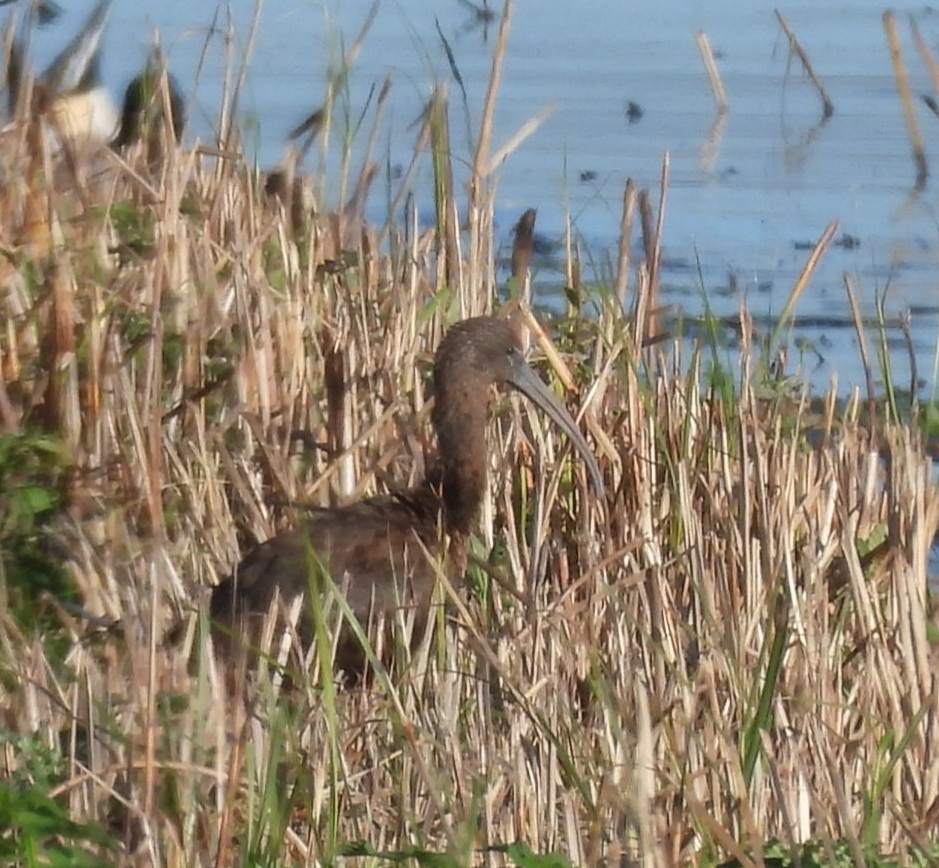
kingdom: Animalia
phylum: Chordata
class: Aves
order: Pelecaniformes
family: Threskiornithidae
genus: Plegadis
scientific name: Plegadis falcinellus
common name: Glossy ibis
